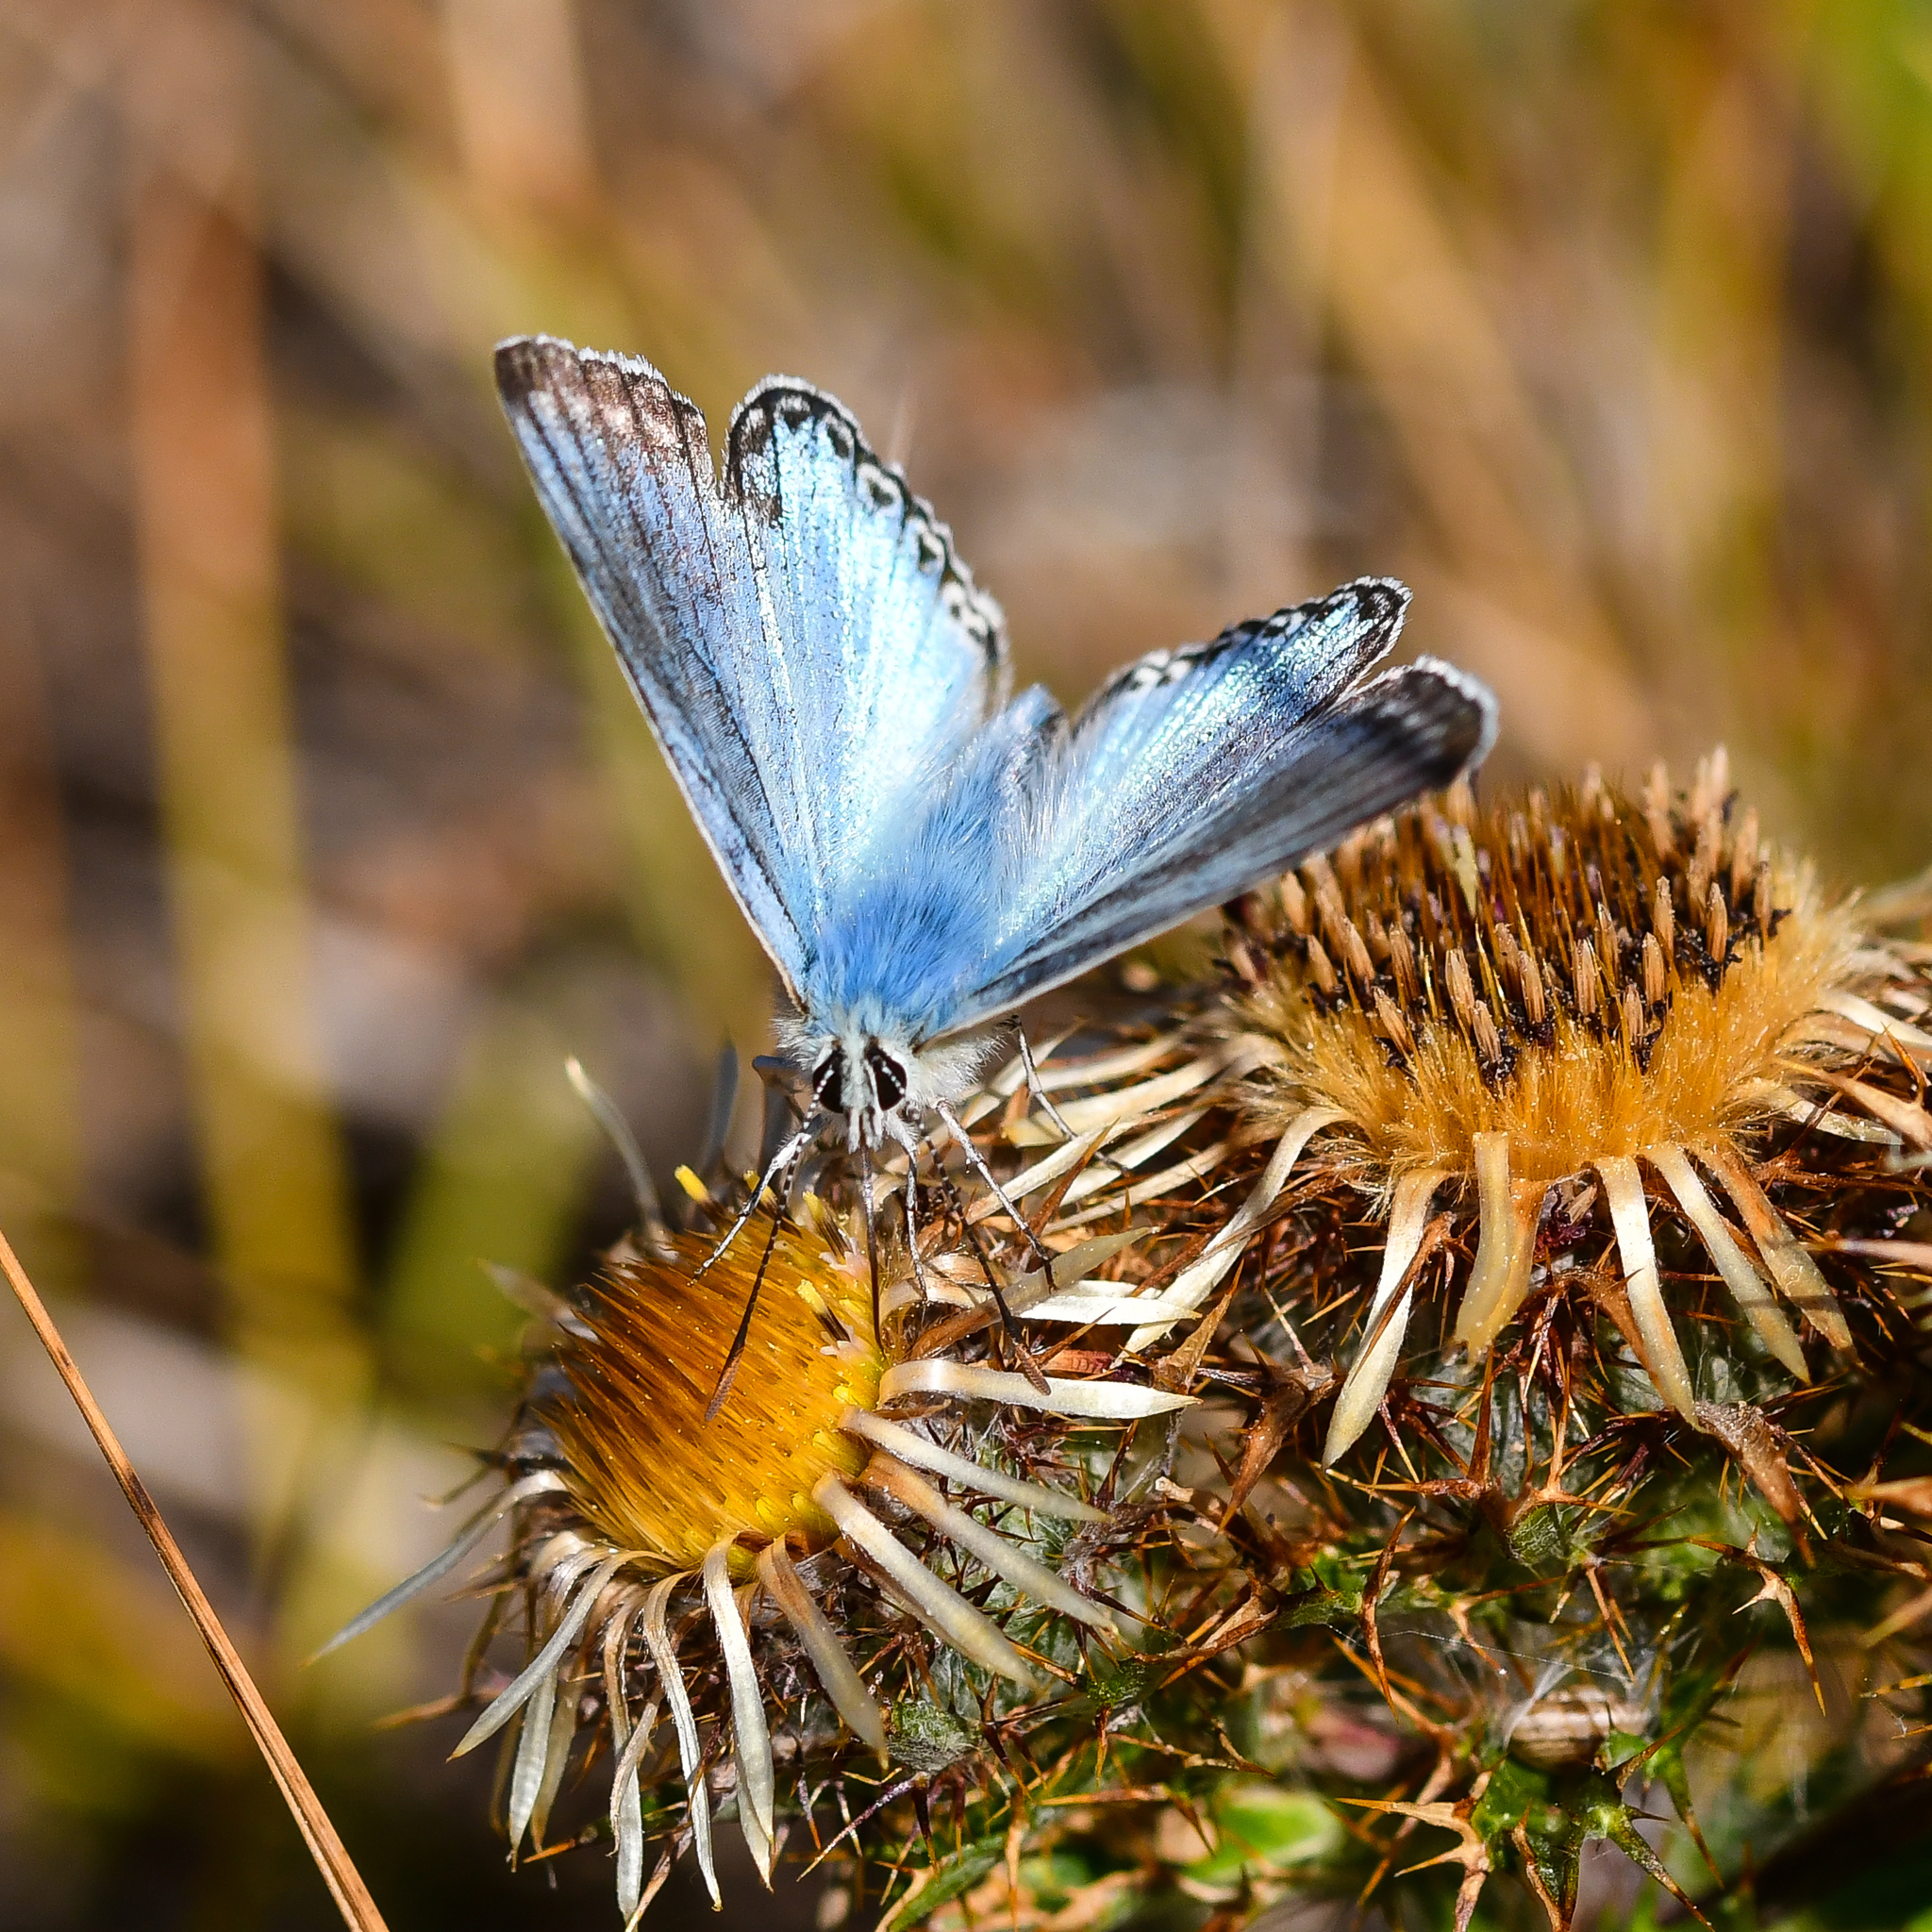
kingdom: Animalia
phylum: Arthropoda
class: Insecta
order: Lepidoptera
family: Lycaenidae
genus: Lysandra
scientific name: Lysandra coridon
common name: Chalkhill blue
